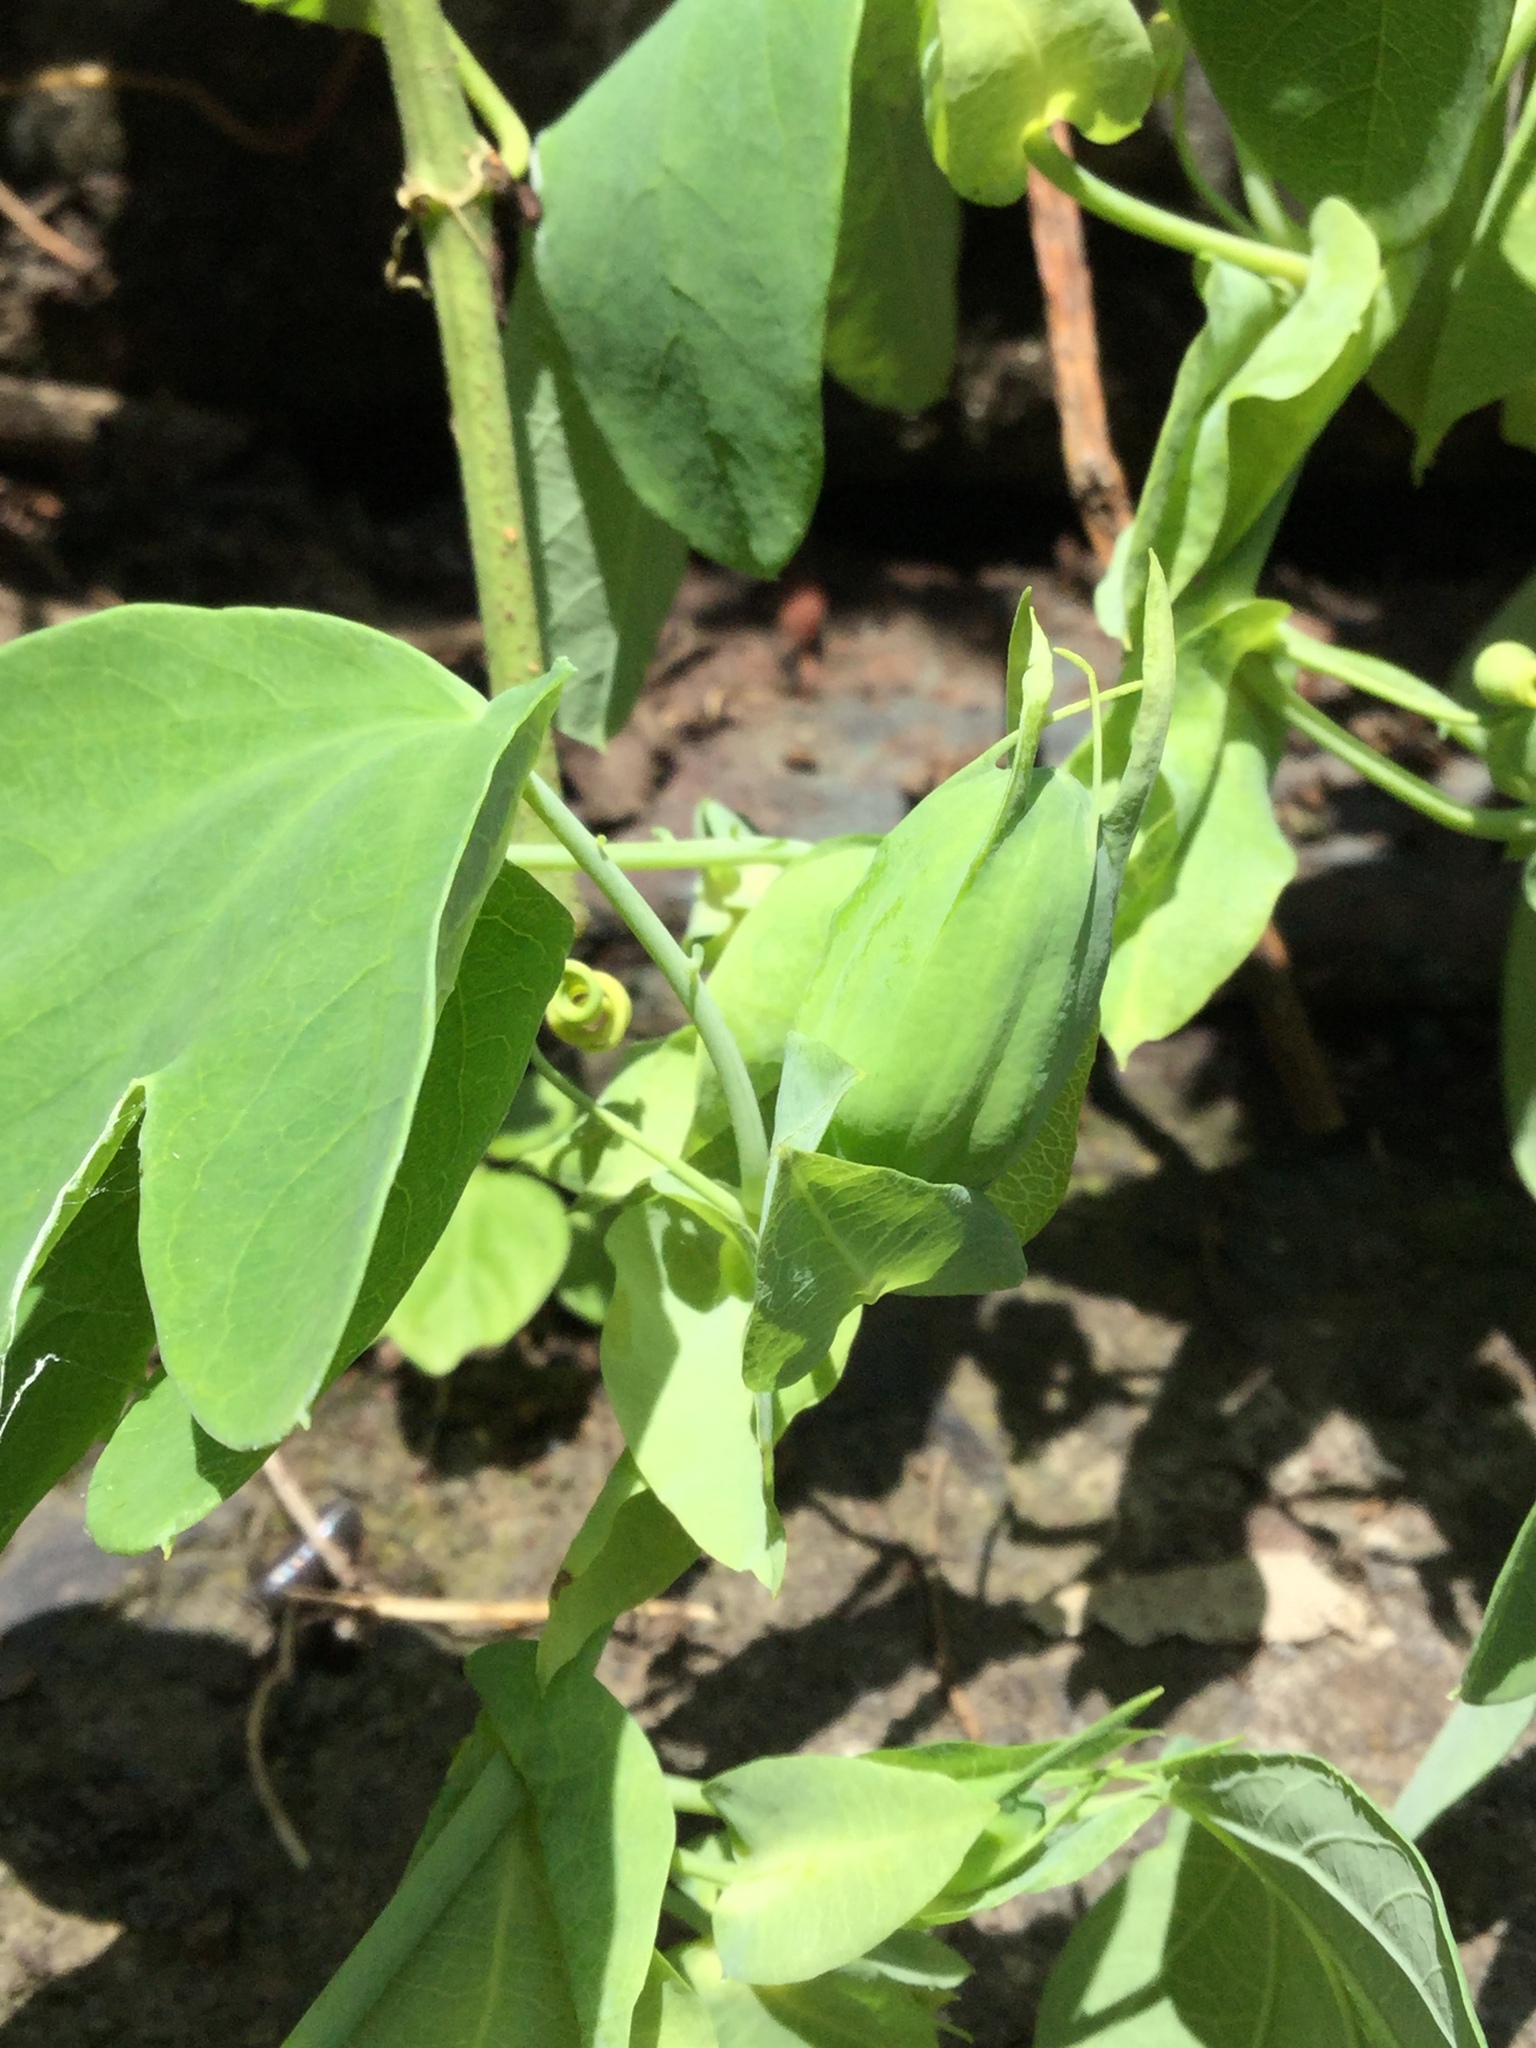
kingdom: Plantae
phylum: Tracheophyta
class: Magnoliopsida
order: Malpighiales
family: Passifloraceae
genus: Passiflora
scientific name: Passiflora subpeltata
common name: White passionflower
